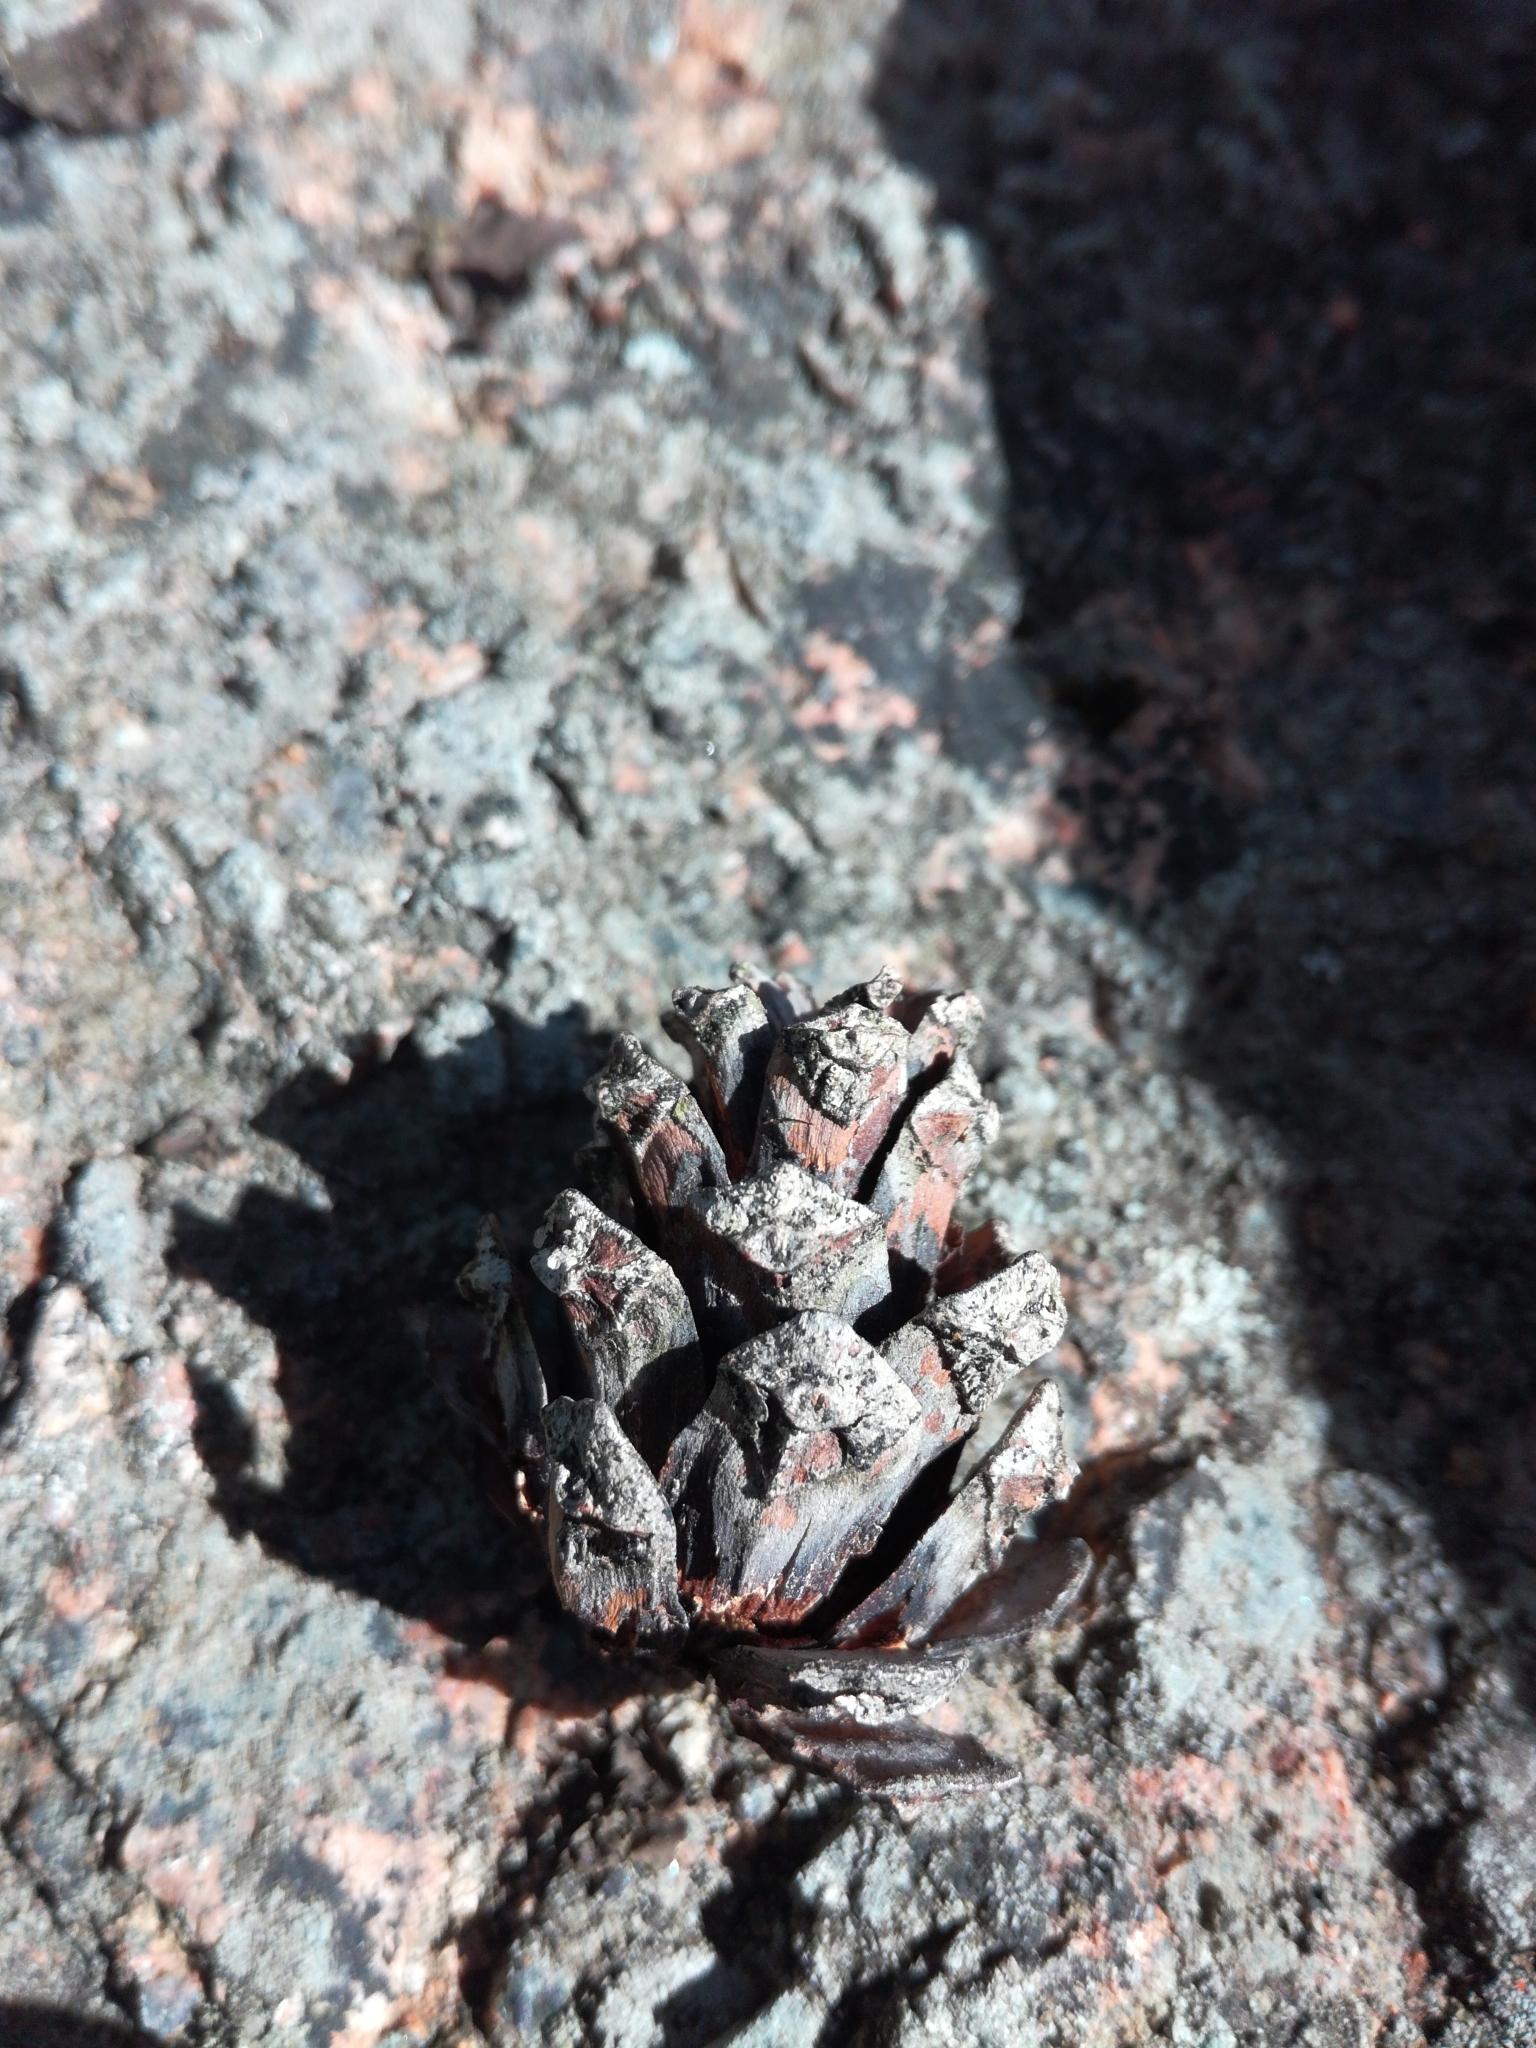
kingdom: Plantae
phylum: Tracheophyta
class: Pinopsida
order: Pinales
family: Pinaceae
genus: Pinus
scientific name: Pinus sylvestris
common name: Scots pine
